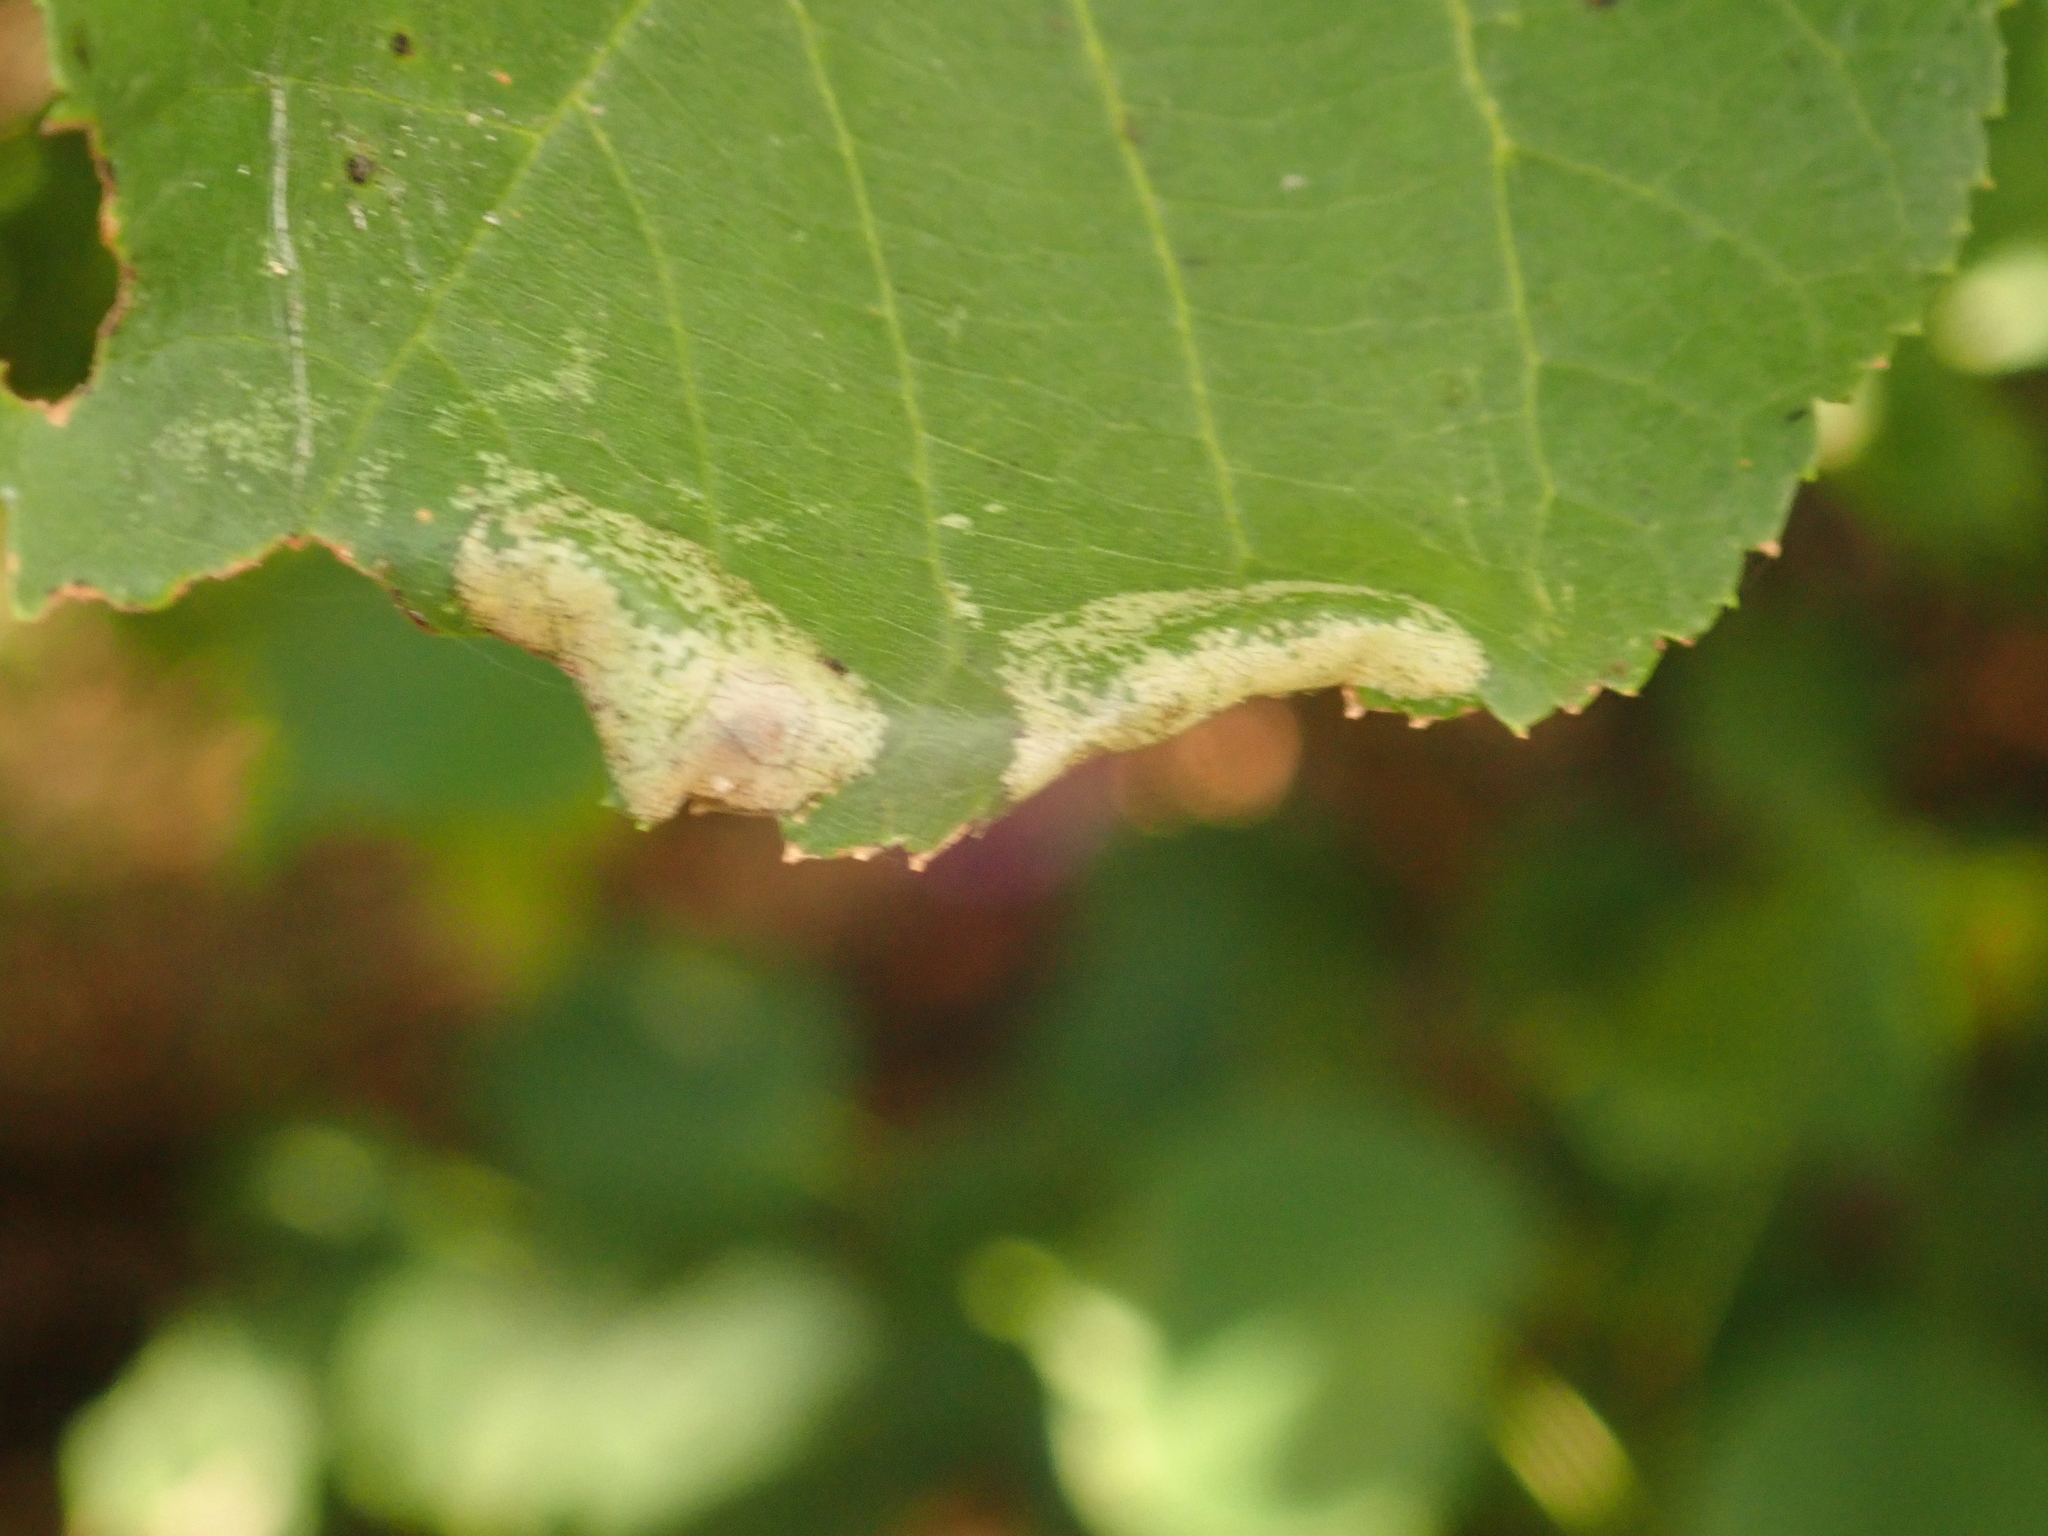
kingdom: Animalia
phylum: Arthropoda
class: Insecta
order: Lepidoptera
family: Gracillariidae
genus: Phyllonorycter
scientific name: Phyllonorycter issikii
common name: Linden midget
